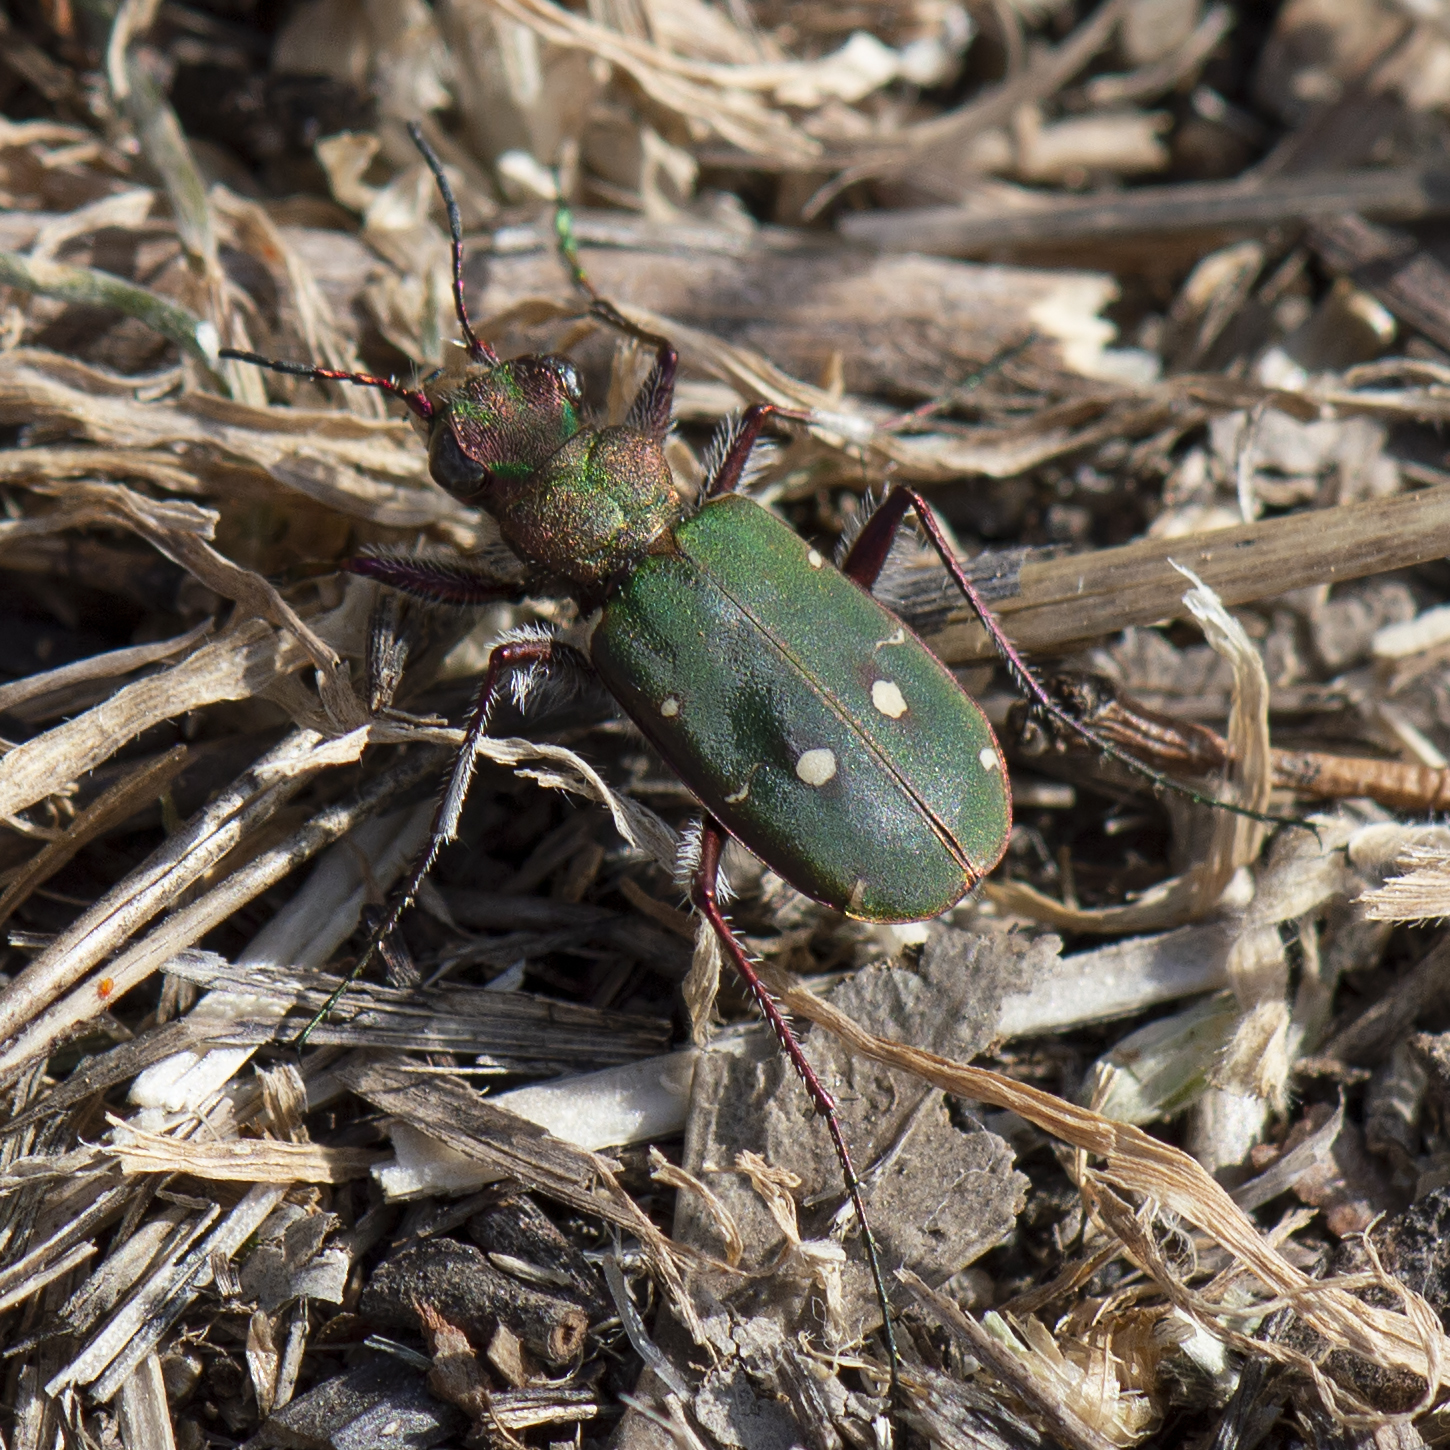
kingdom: Animalia
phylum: Arthropoda
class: Insecta
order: Coleoptera
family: Carabidae
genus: Cicindela
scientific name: Cicindela campestris
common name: Common tiger beetle
